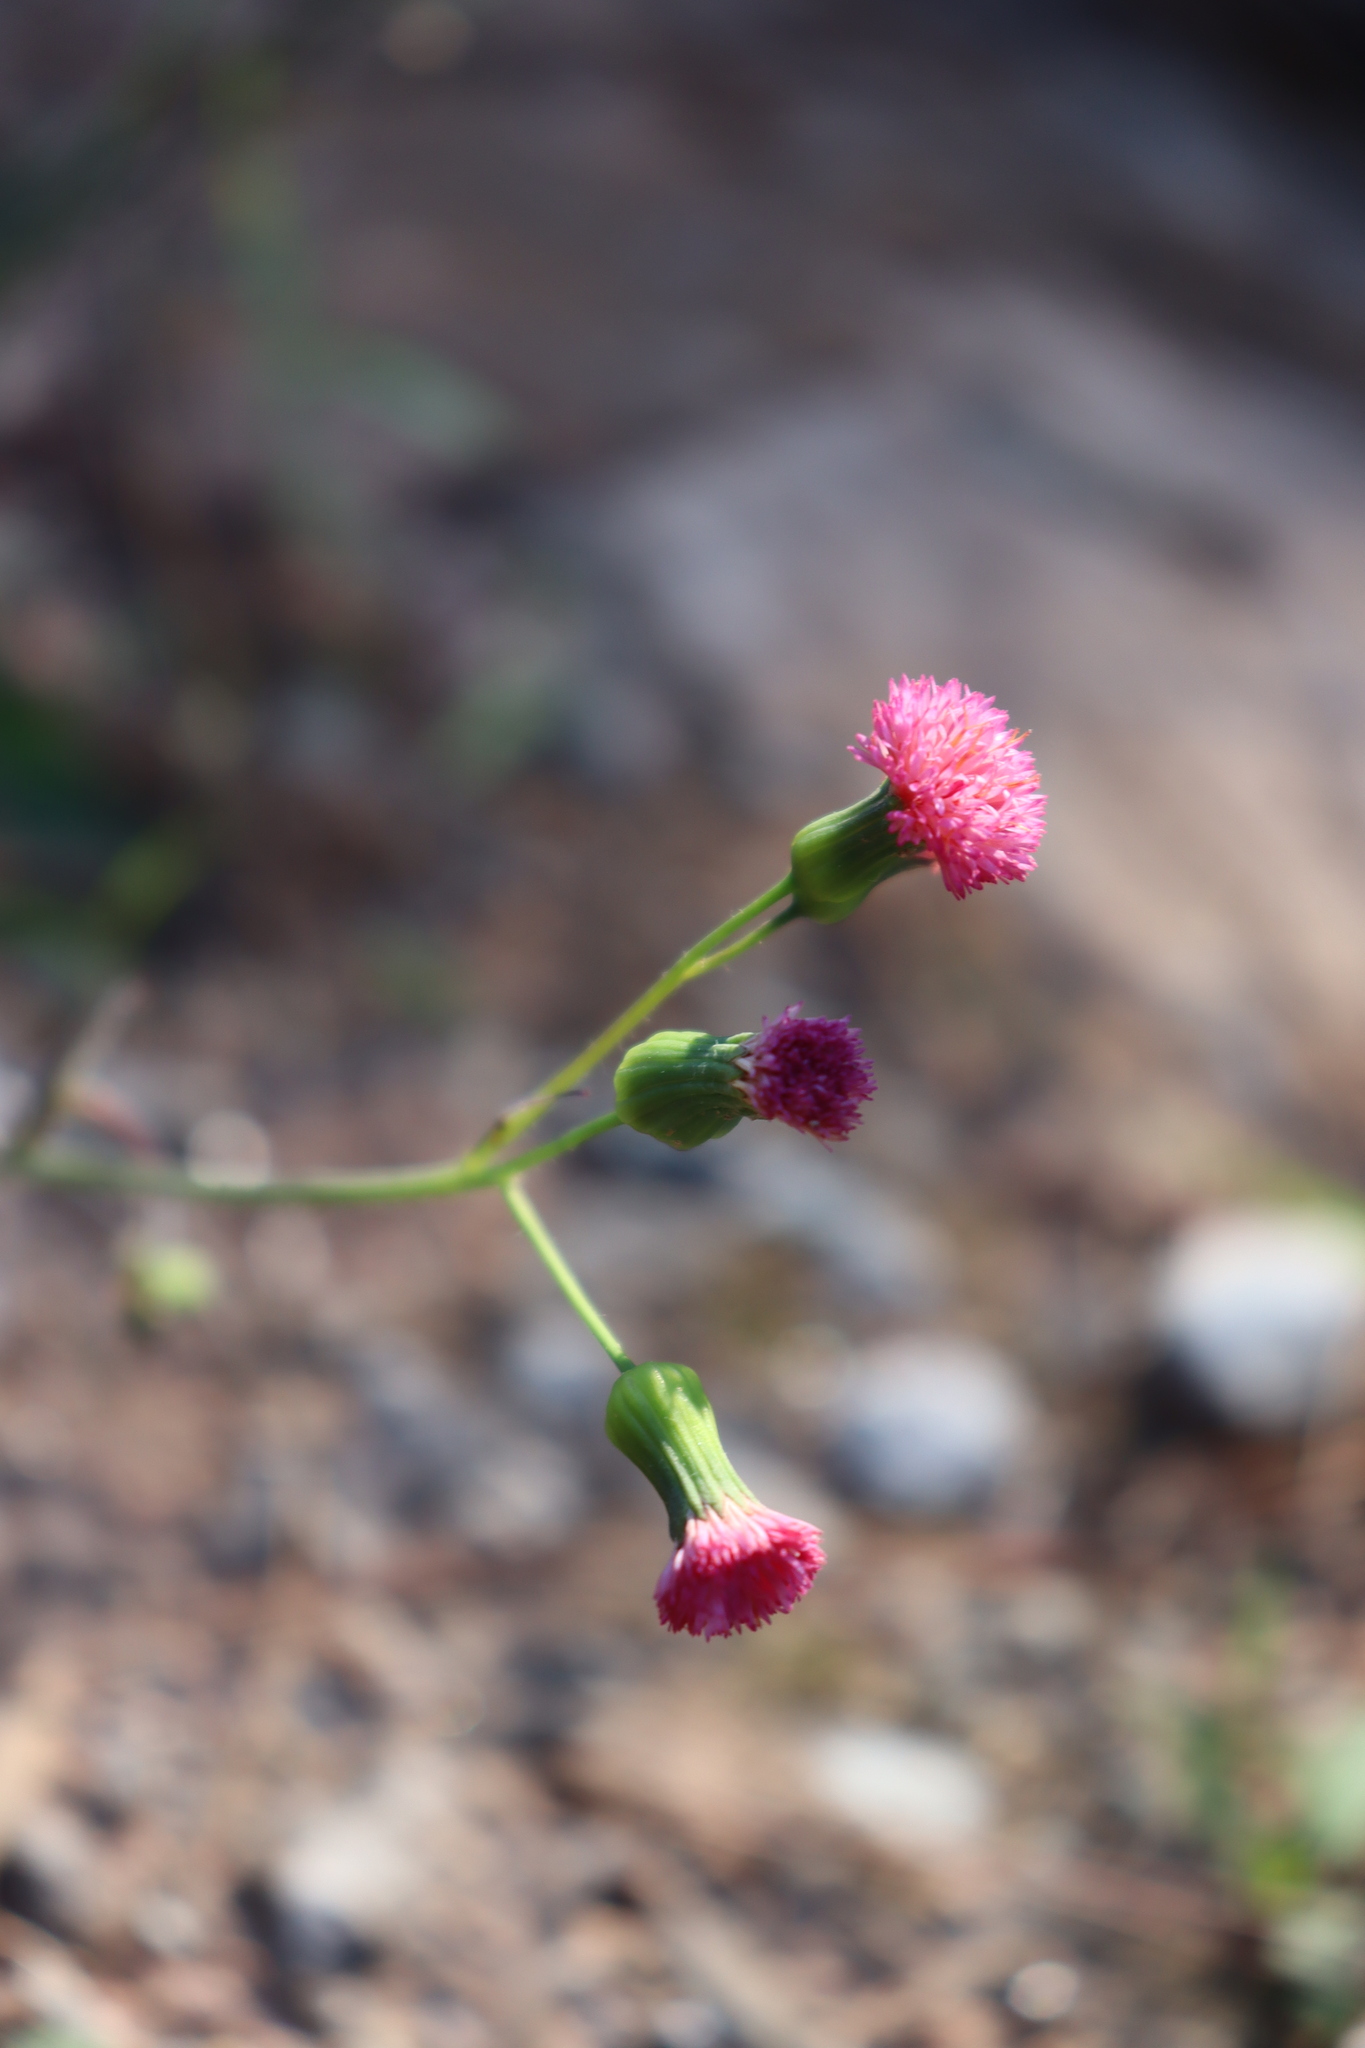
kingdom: Plantae
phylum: Tracheophyta
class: Magnoliopsida
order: Asterales
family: Asteraceae
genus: Emilia
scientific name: Emilia fosbergii
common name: Florida tasselflower
